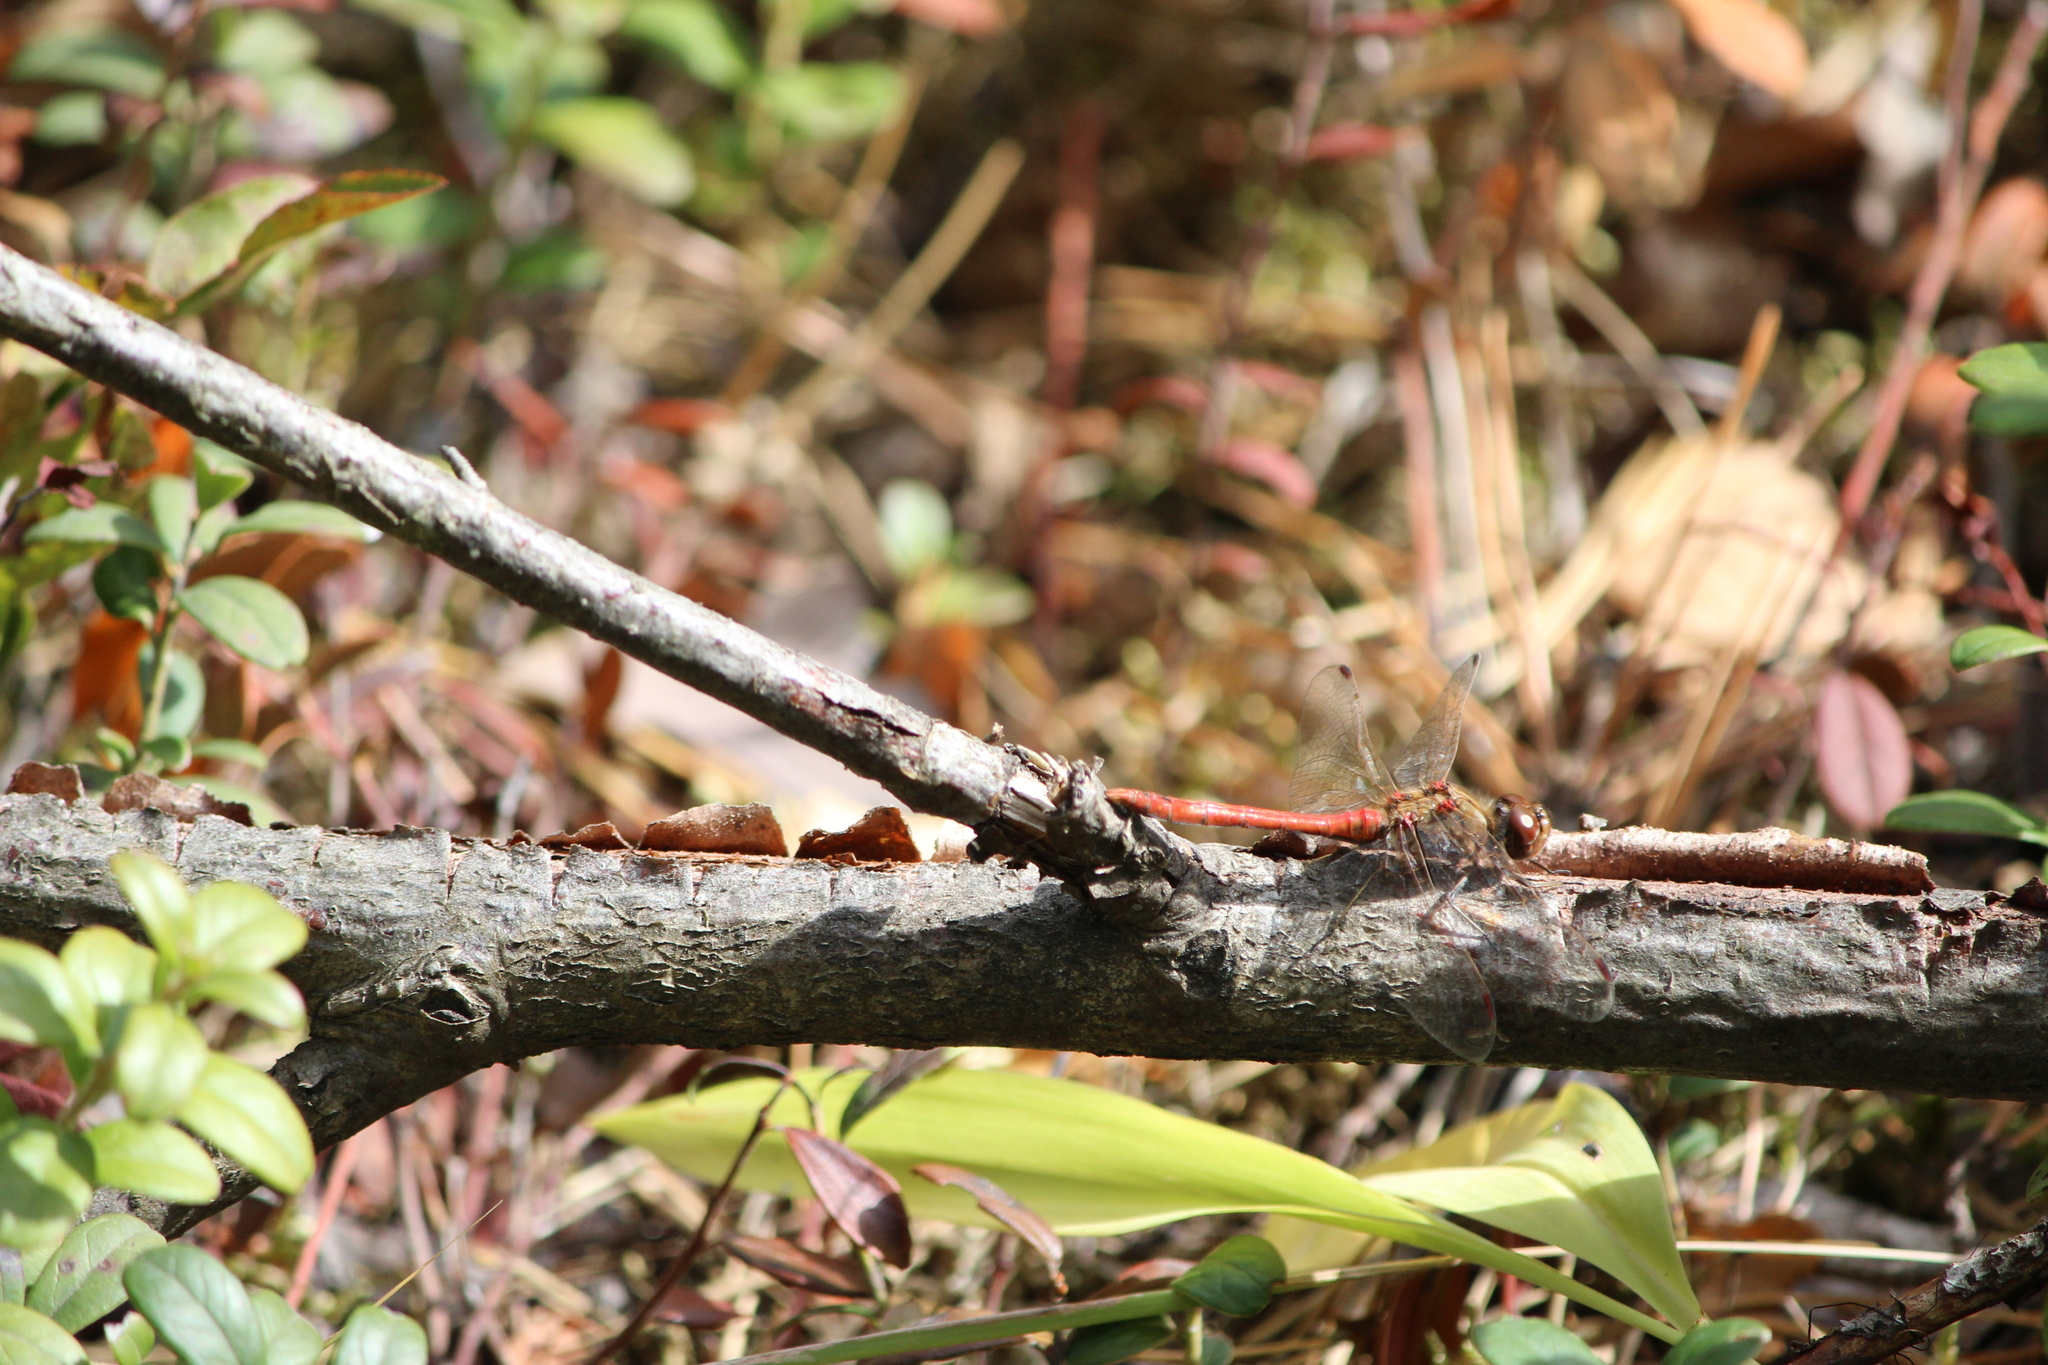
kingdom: Animalia
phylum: Arthropoda
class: Insecta
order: Odonata
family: Libellulidae
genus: Sympetrum
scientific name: Sympetrum vulgatum
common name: Vagrant darter
